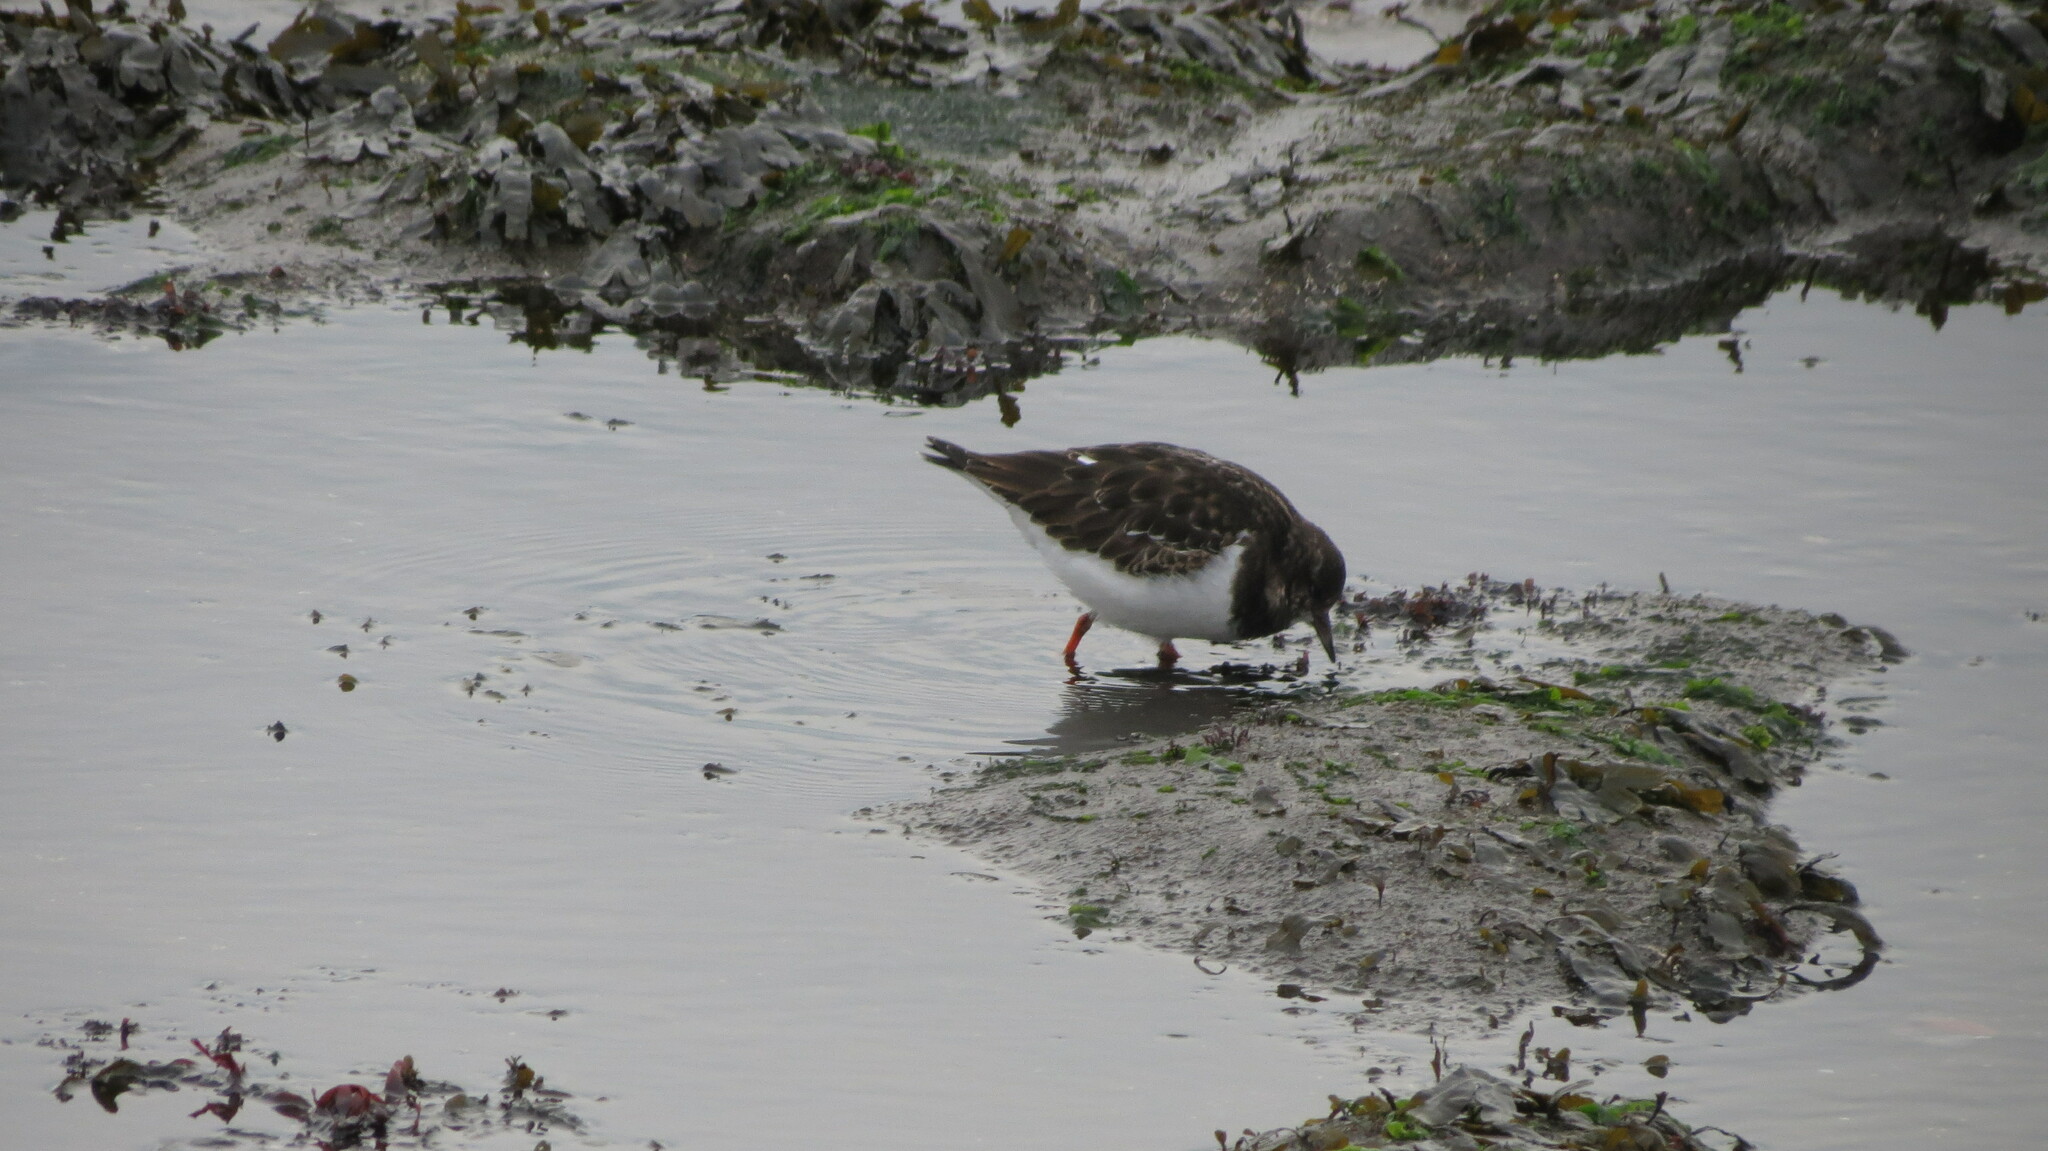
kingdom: Animalia
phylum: Chordata
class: Aves
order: Charadriiformes
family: Scolopacidae
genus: Arenaria
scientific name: Arenaria interpres
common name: Ruddy turnstone
